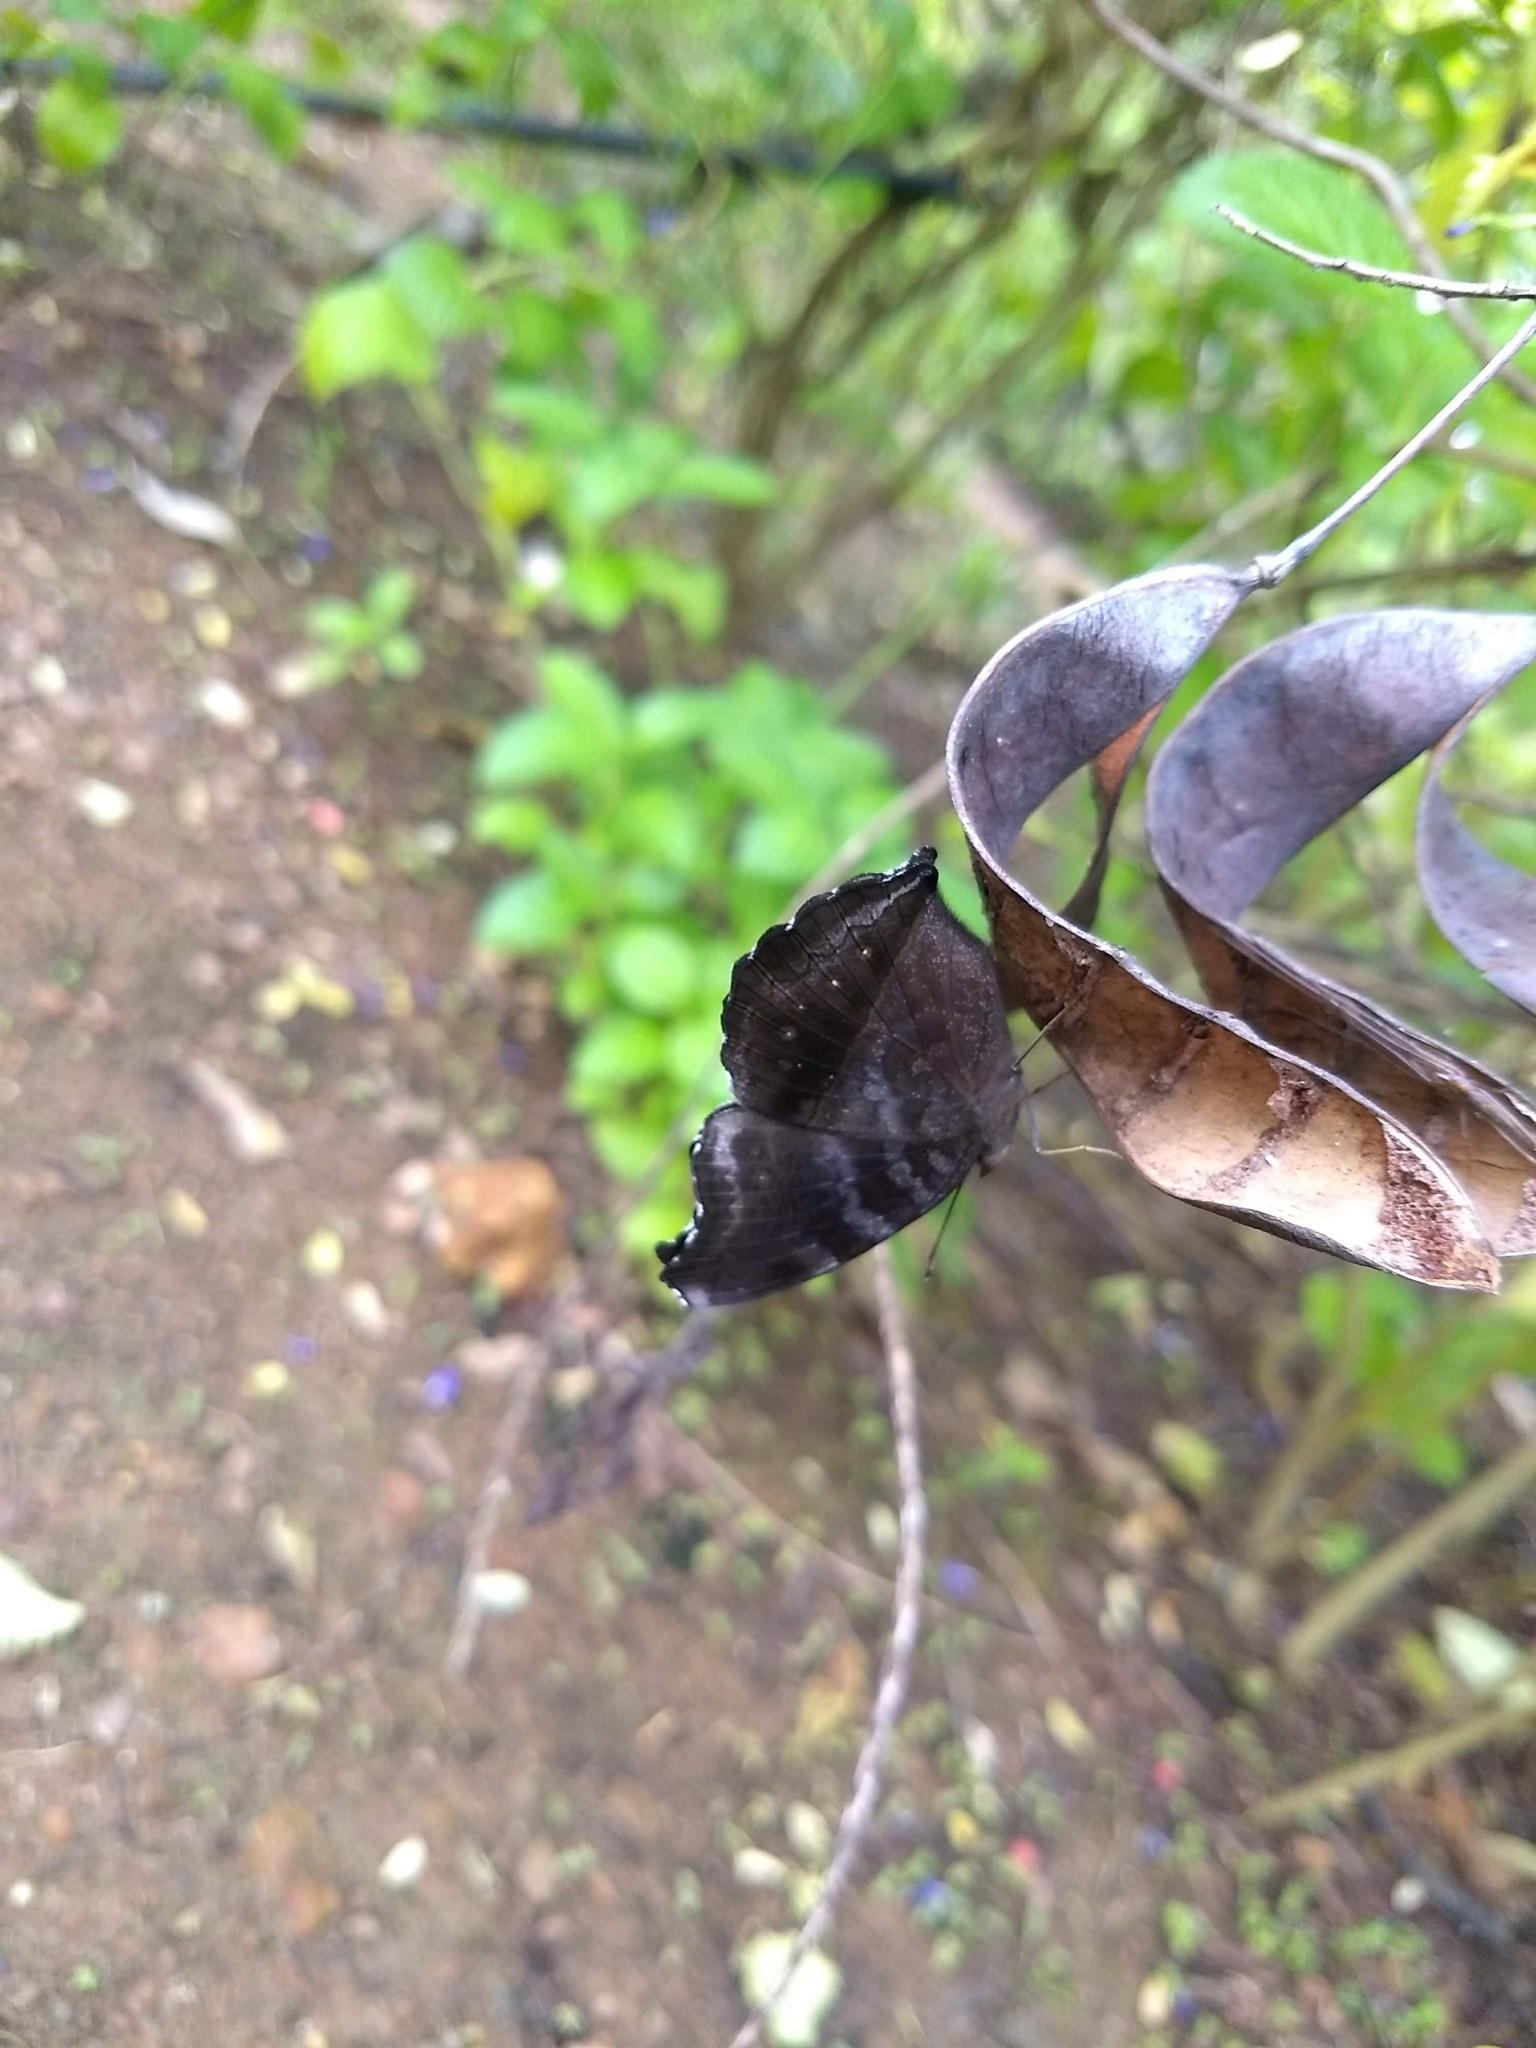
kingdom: Animalia
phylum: Arthropoda
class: Insecta
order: Lepidoptera
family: Nymphalidae
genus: Junonia
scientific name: Junonia iphita
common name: Chocolate pansy
